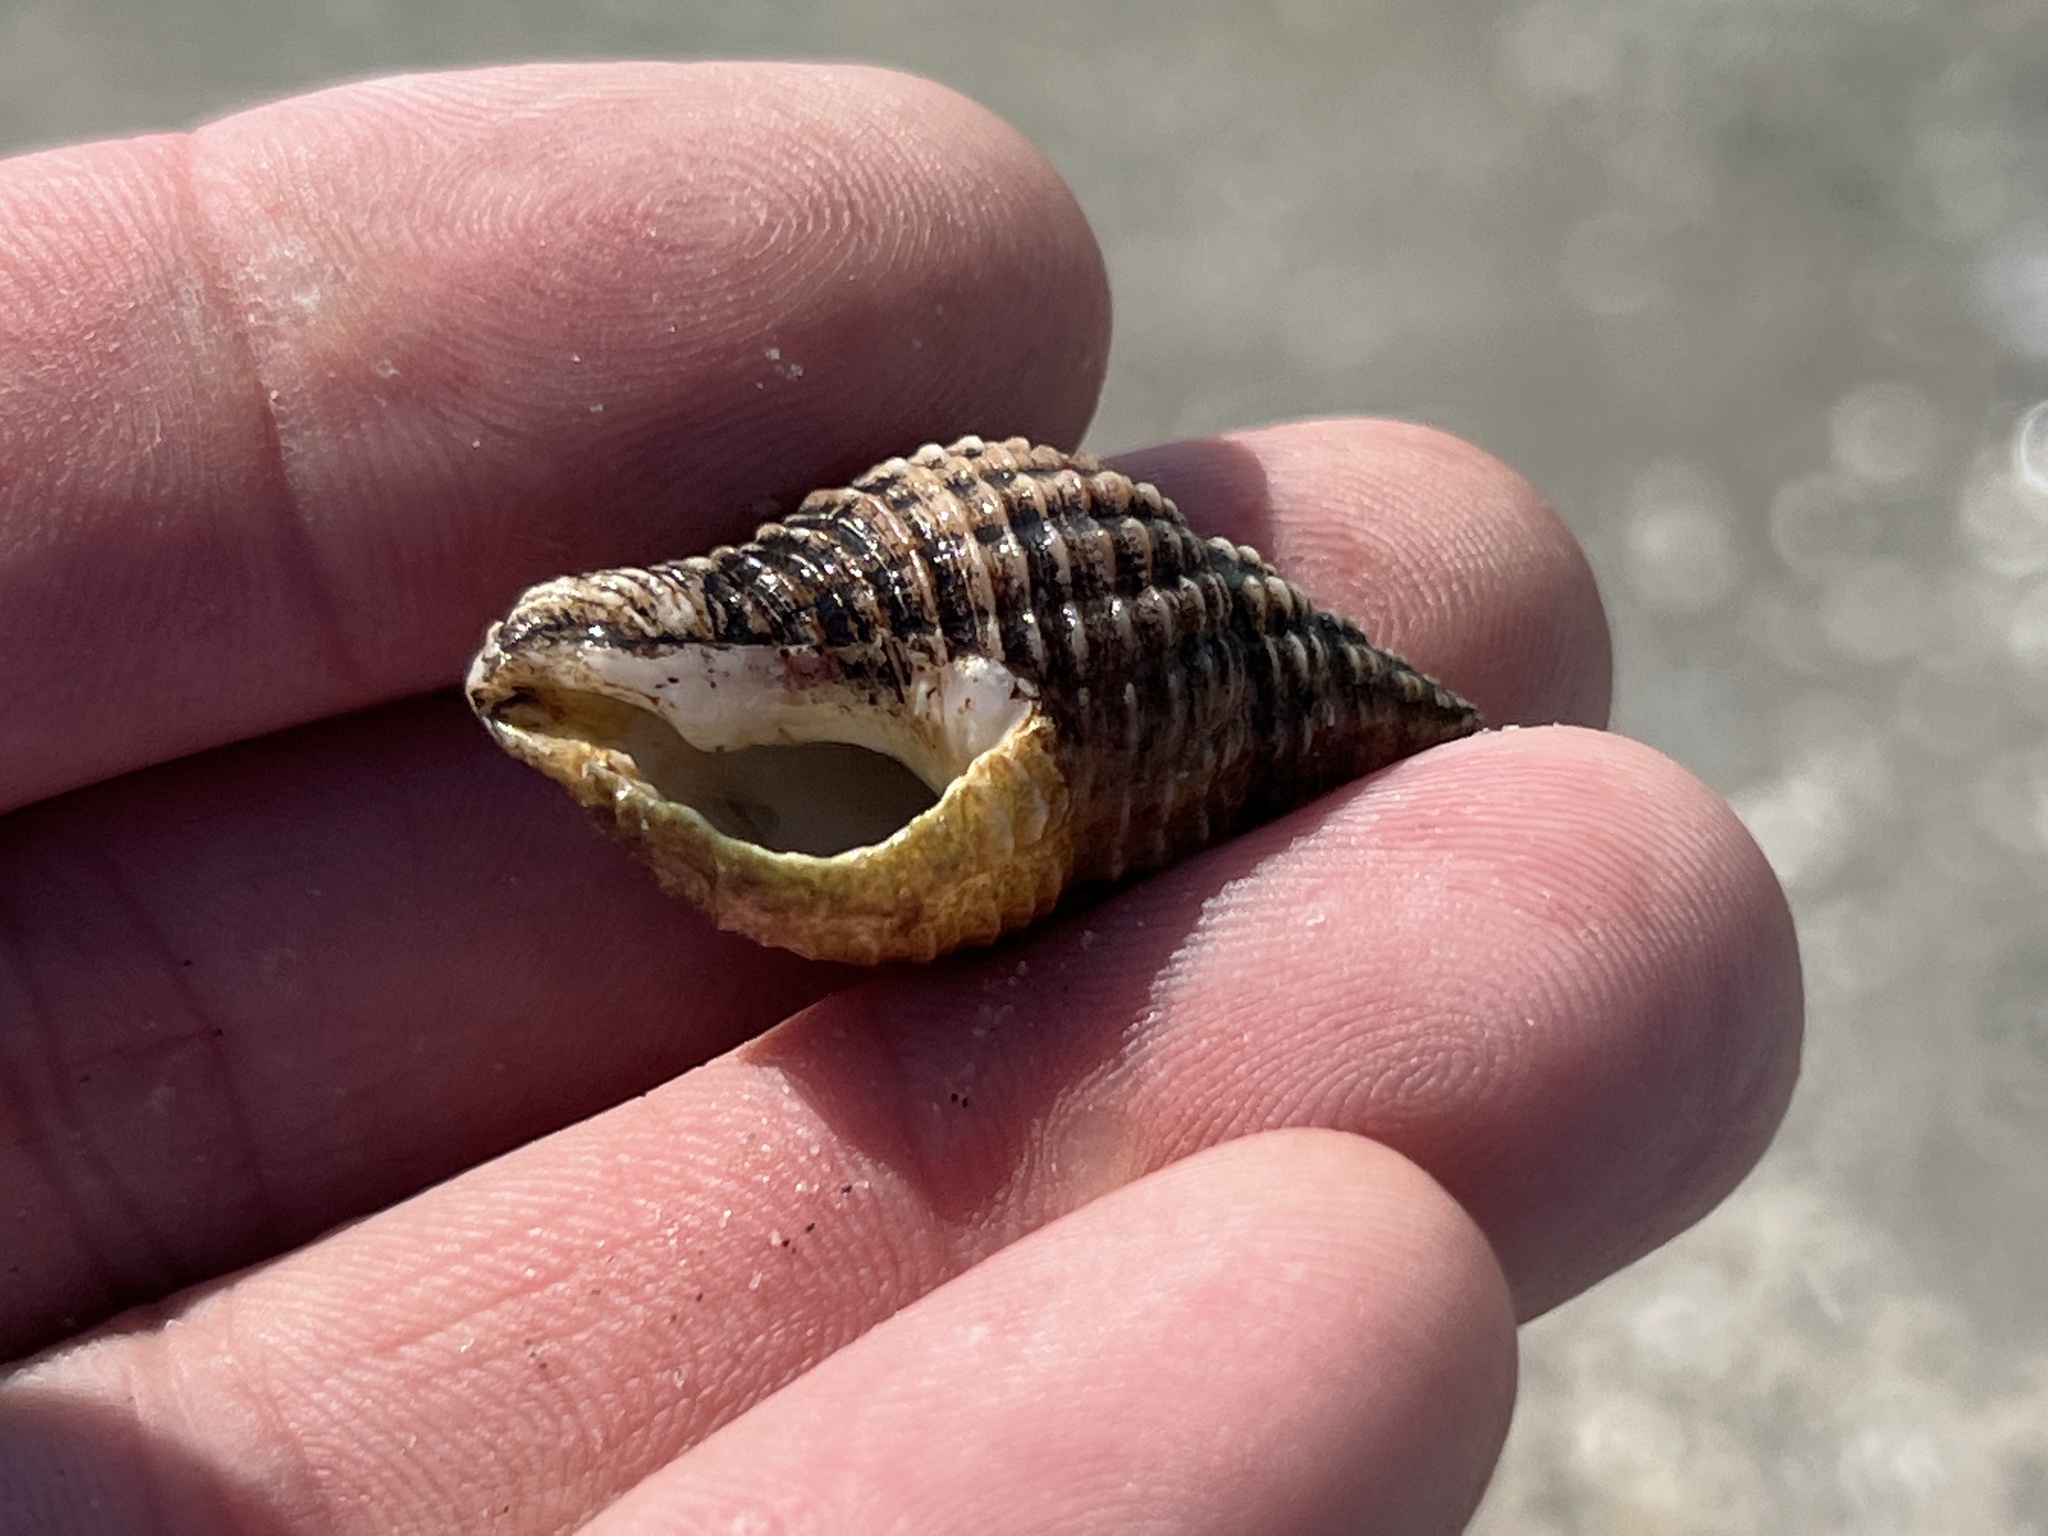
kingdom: Animalia
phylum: Mollusca
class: Gastropoda
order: Neogastropoda
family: Pisaniidae
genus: Solenosteira
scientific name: Solenosteira cancellaria
